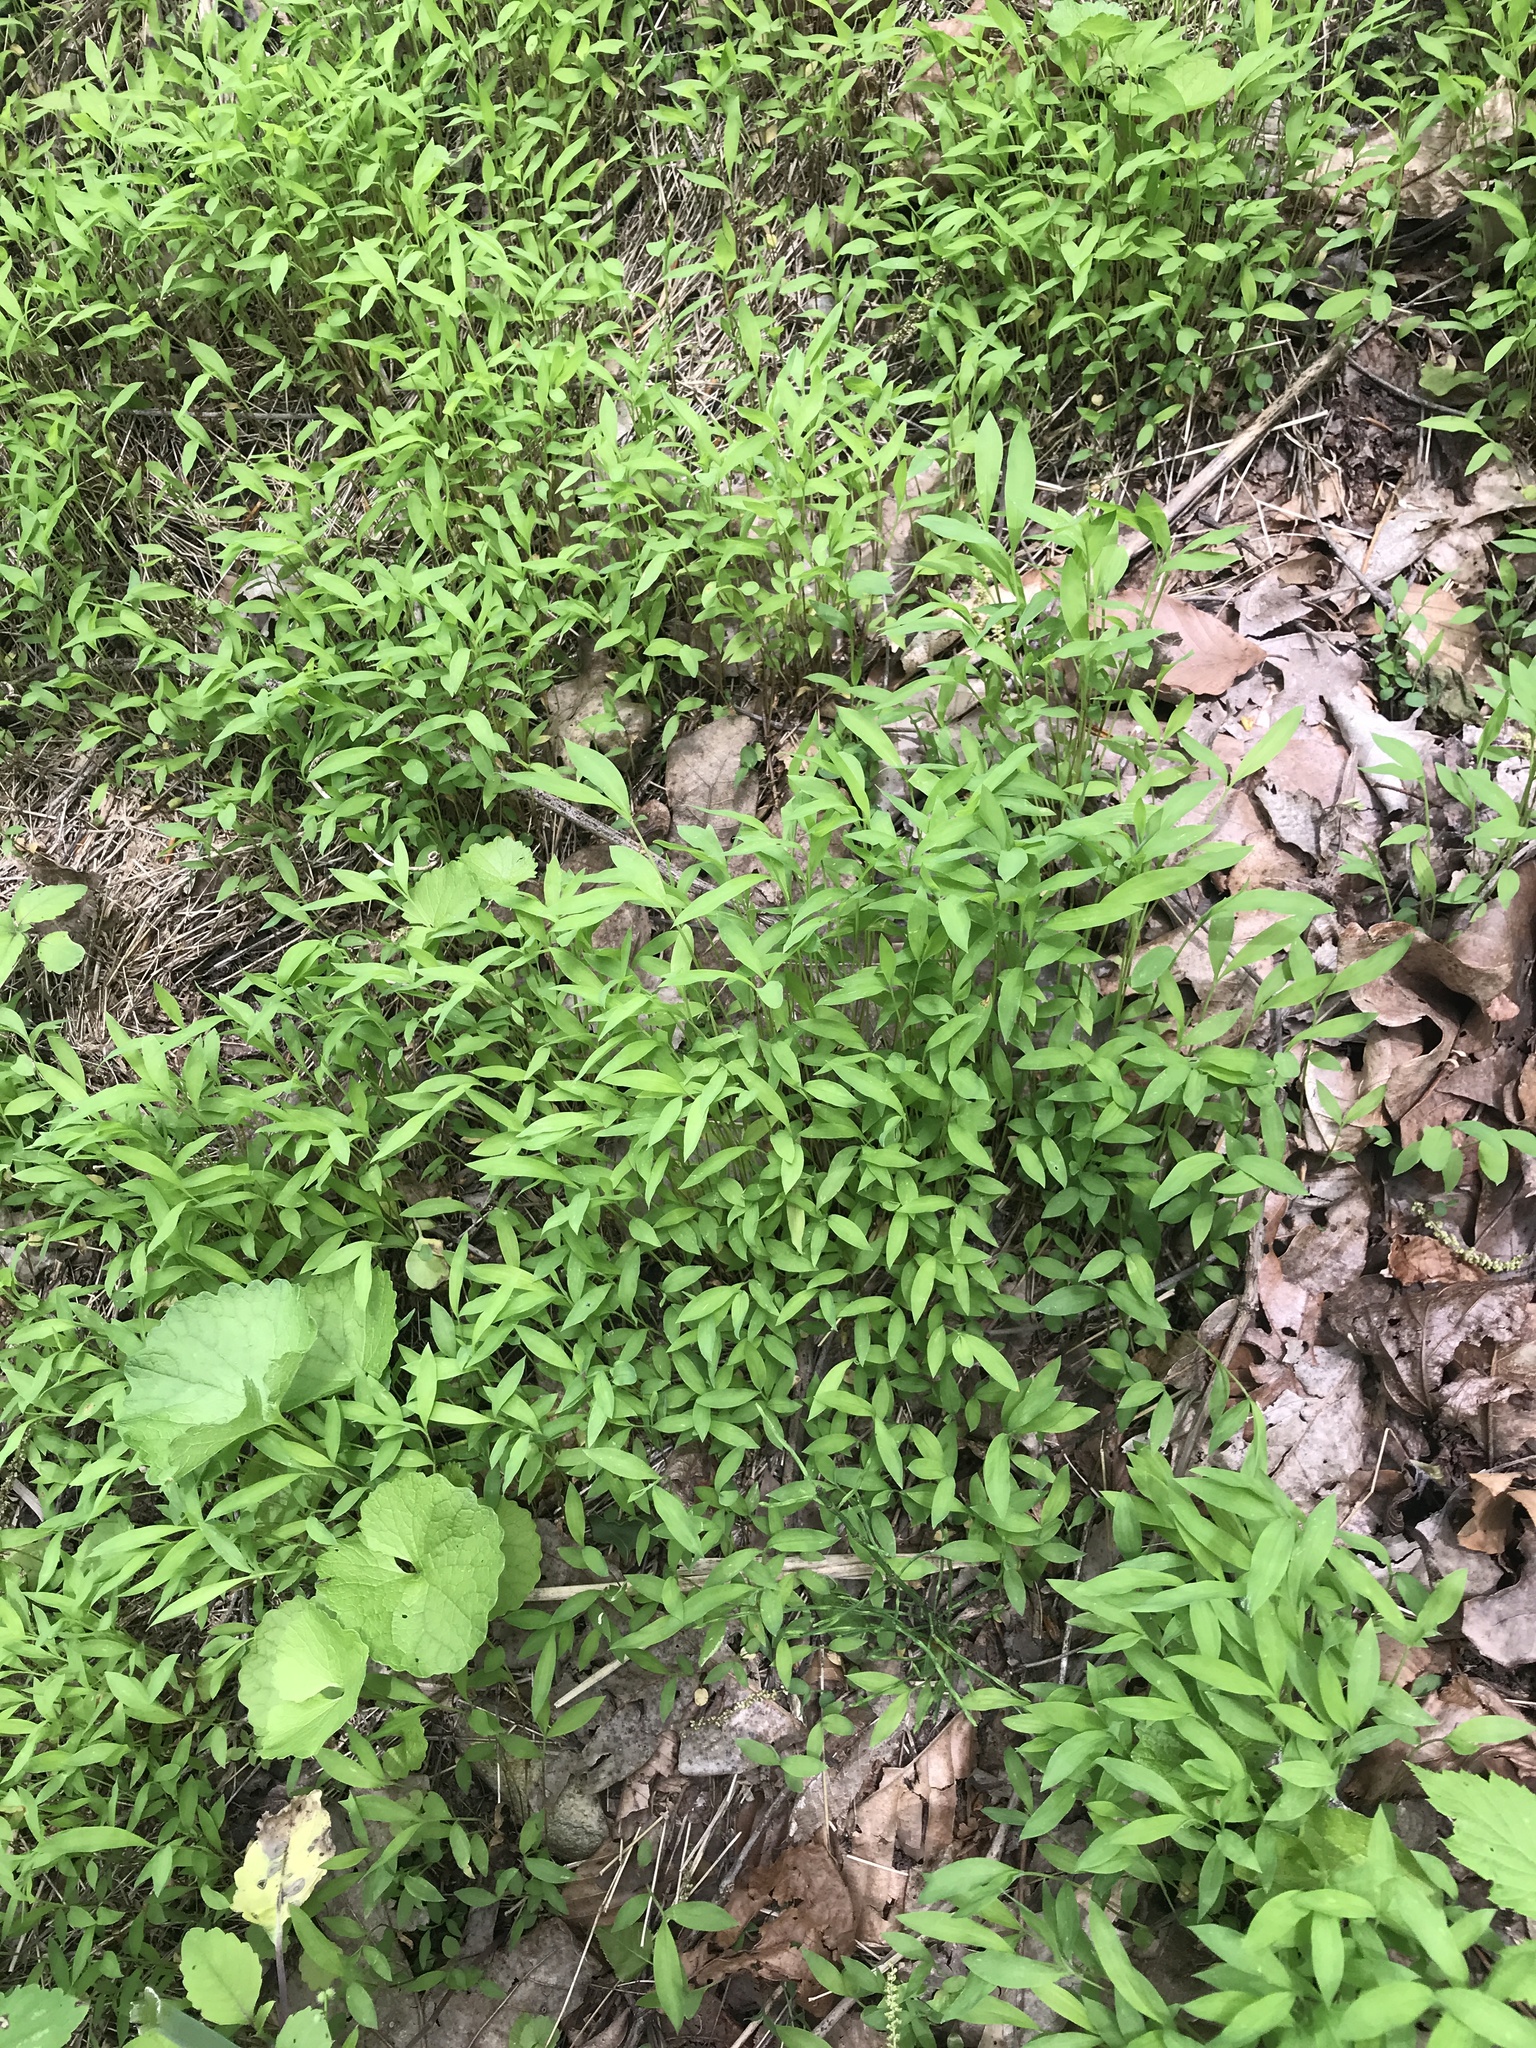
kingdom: Plantae
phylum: Tracheophyta
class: Liliopsida
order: Poales
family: Poaceae
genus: Microstegium
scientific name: Microstegium vimineum
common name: Japanese stiltgrass
